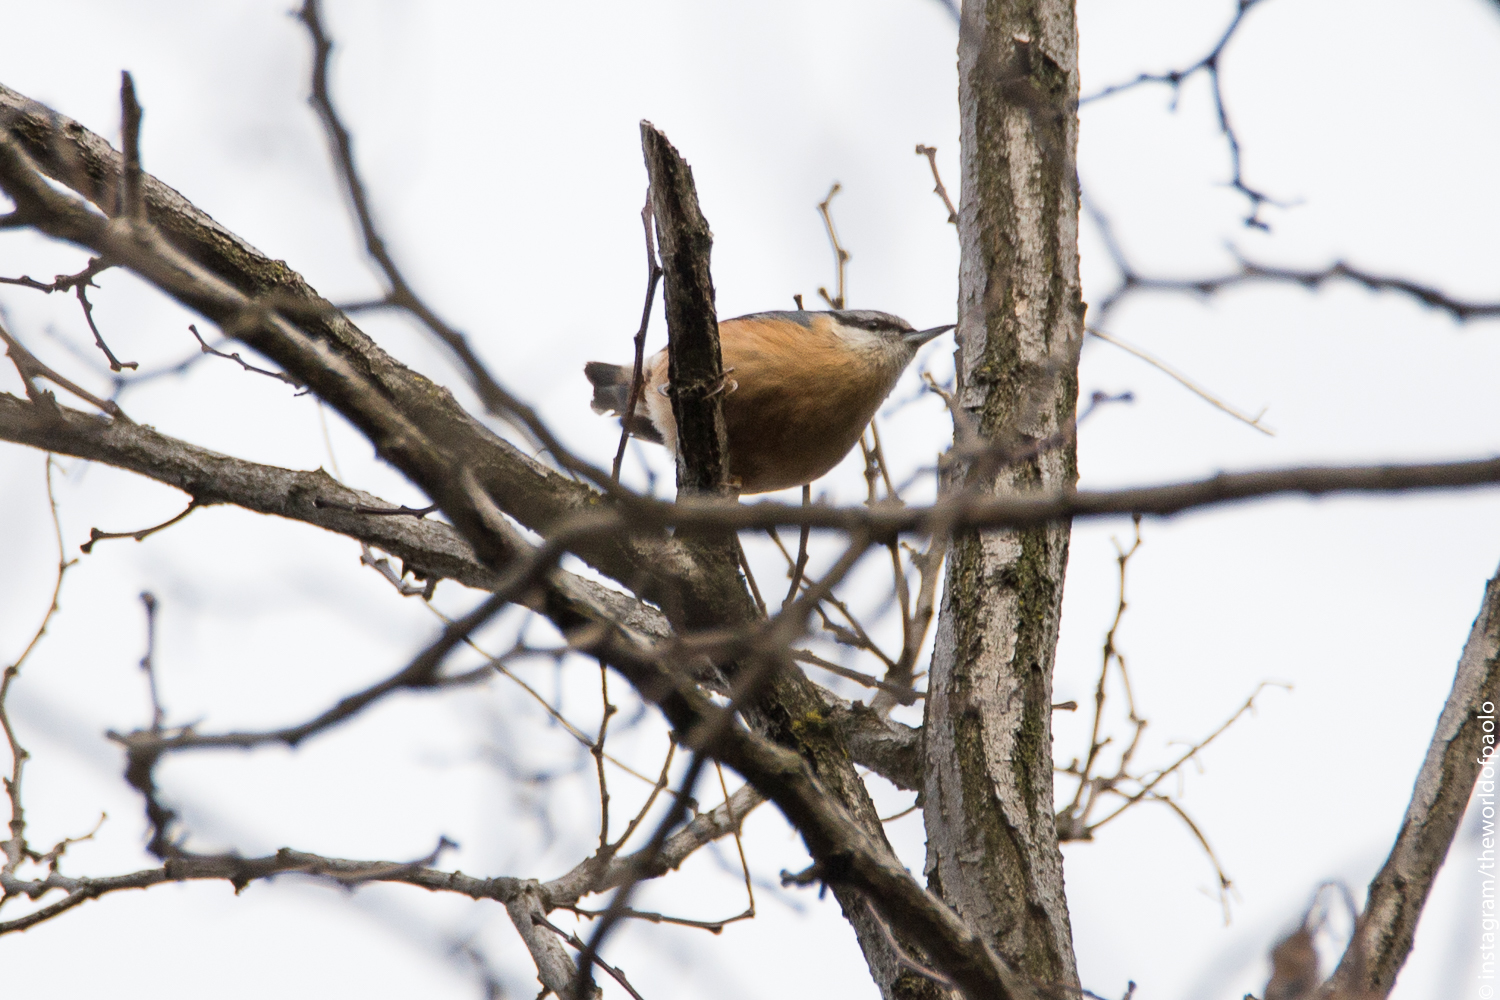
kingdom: Animalia
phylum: Chordata
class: Aves
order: Passeriformes
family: Sittidae
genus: Sitta
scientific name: Sitta europaea
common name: Eurasian nuthatch
